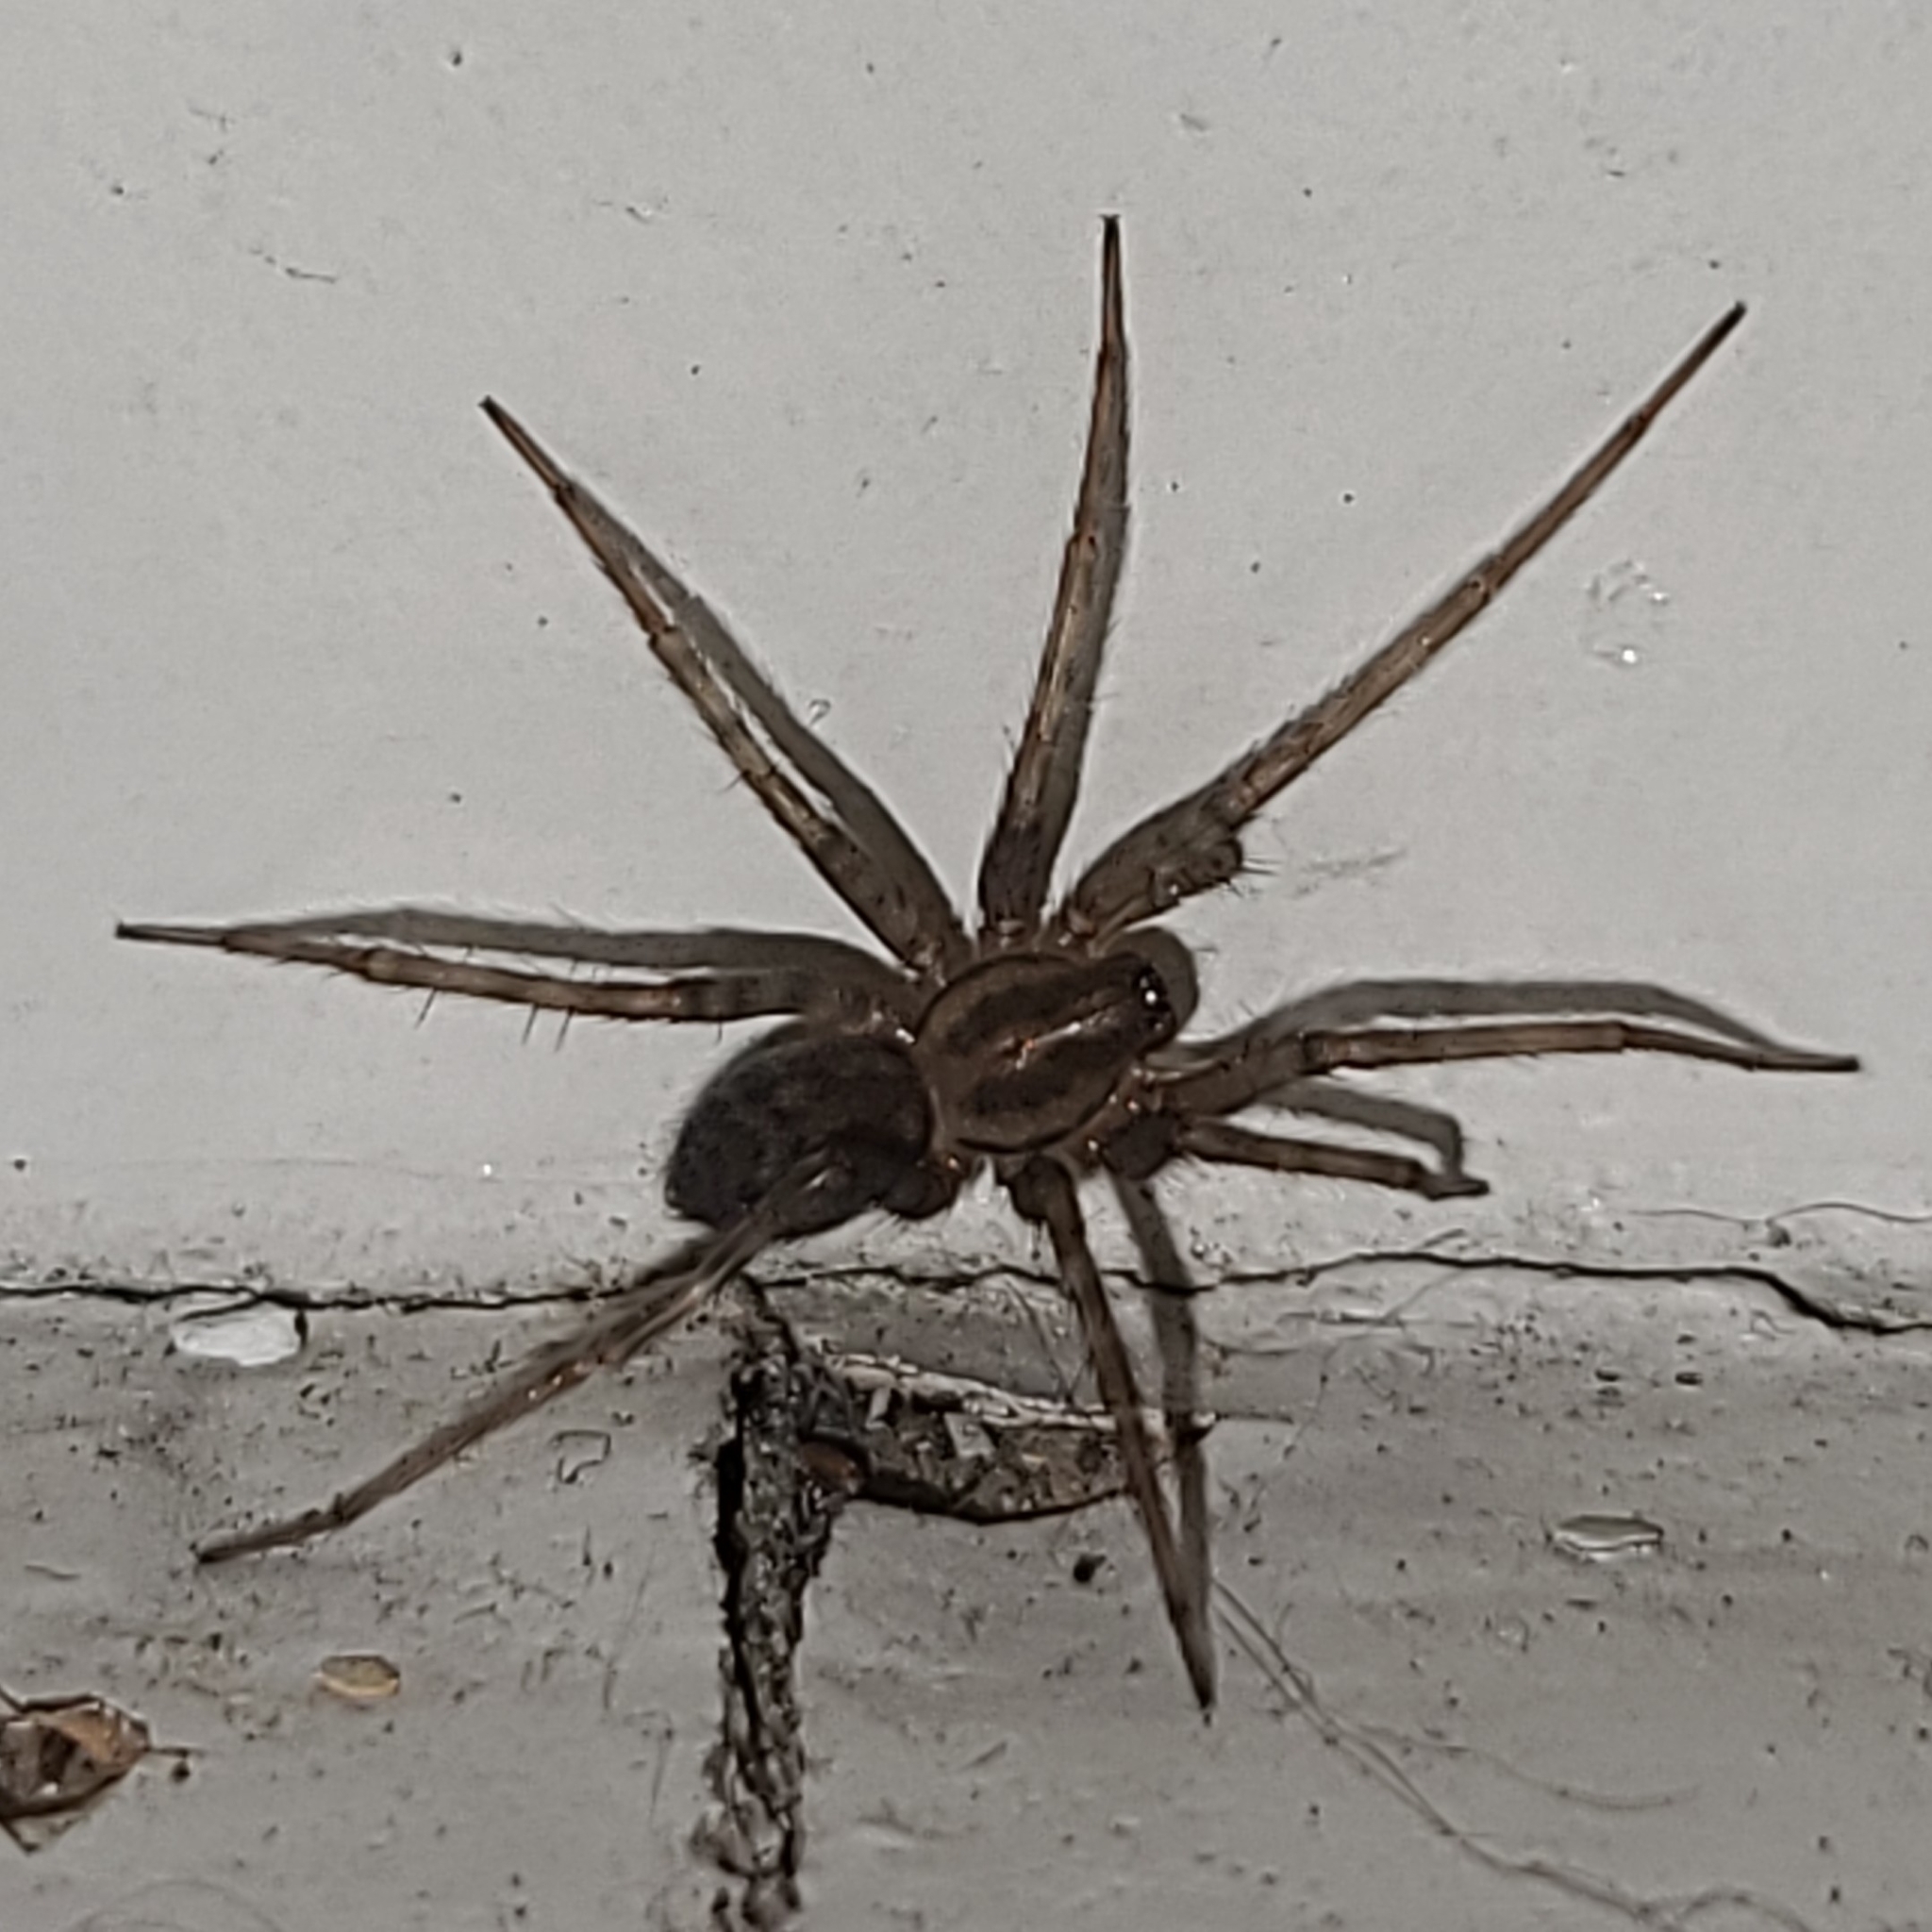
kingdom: Animalia
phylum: Arthropoda
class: Arachnida
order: Araneae
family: Agelenidae
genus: Tegenaria
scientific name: Tegenaria domestica
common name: Barn funnel weaver
